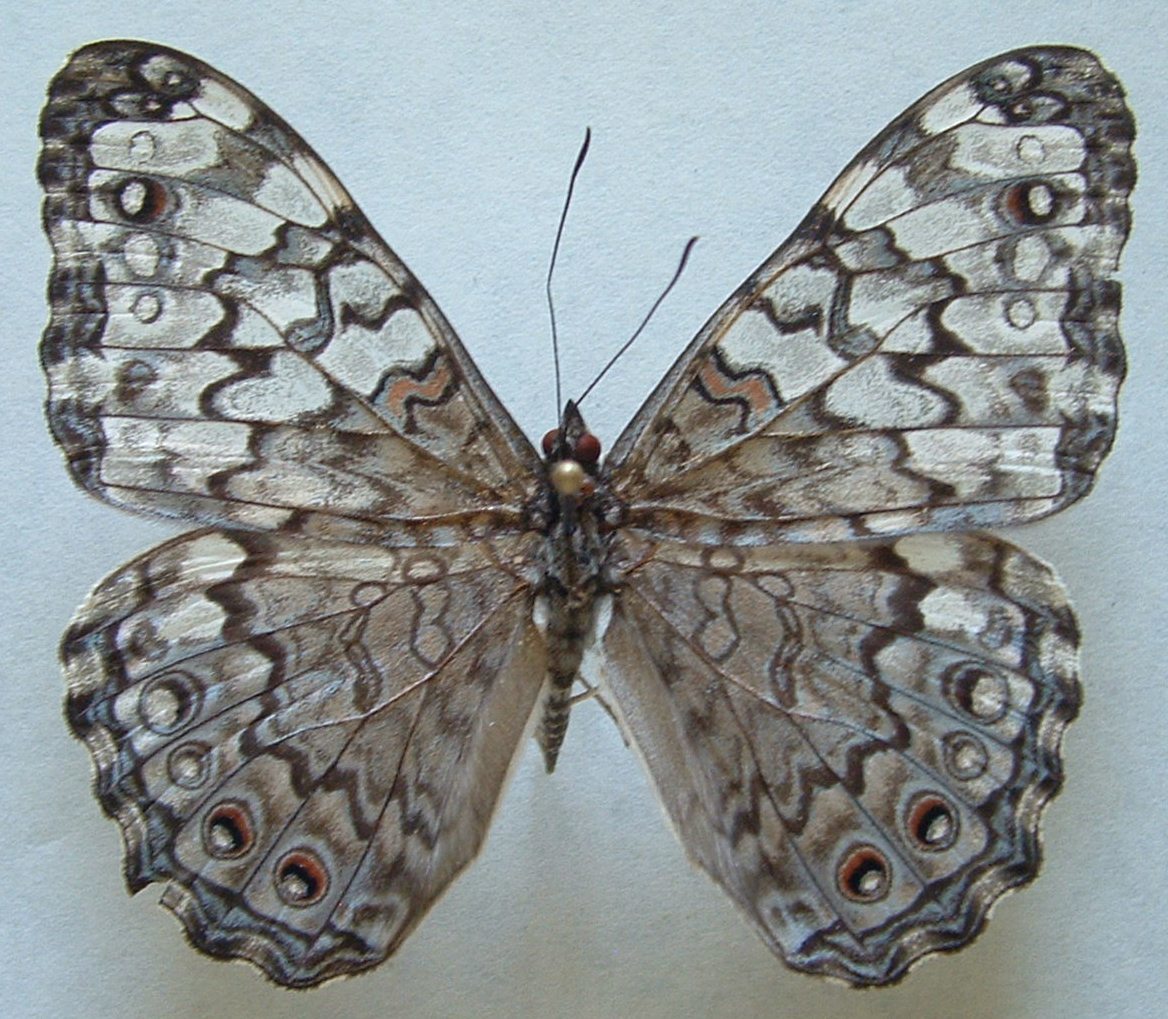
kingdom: Animalia
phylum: Arthropoda
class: Insecta
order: Lepidoptera
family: Nymphalidae
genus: Hamadryas
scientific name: Hamadryas februa
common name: Gray cracker
